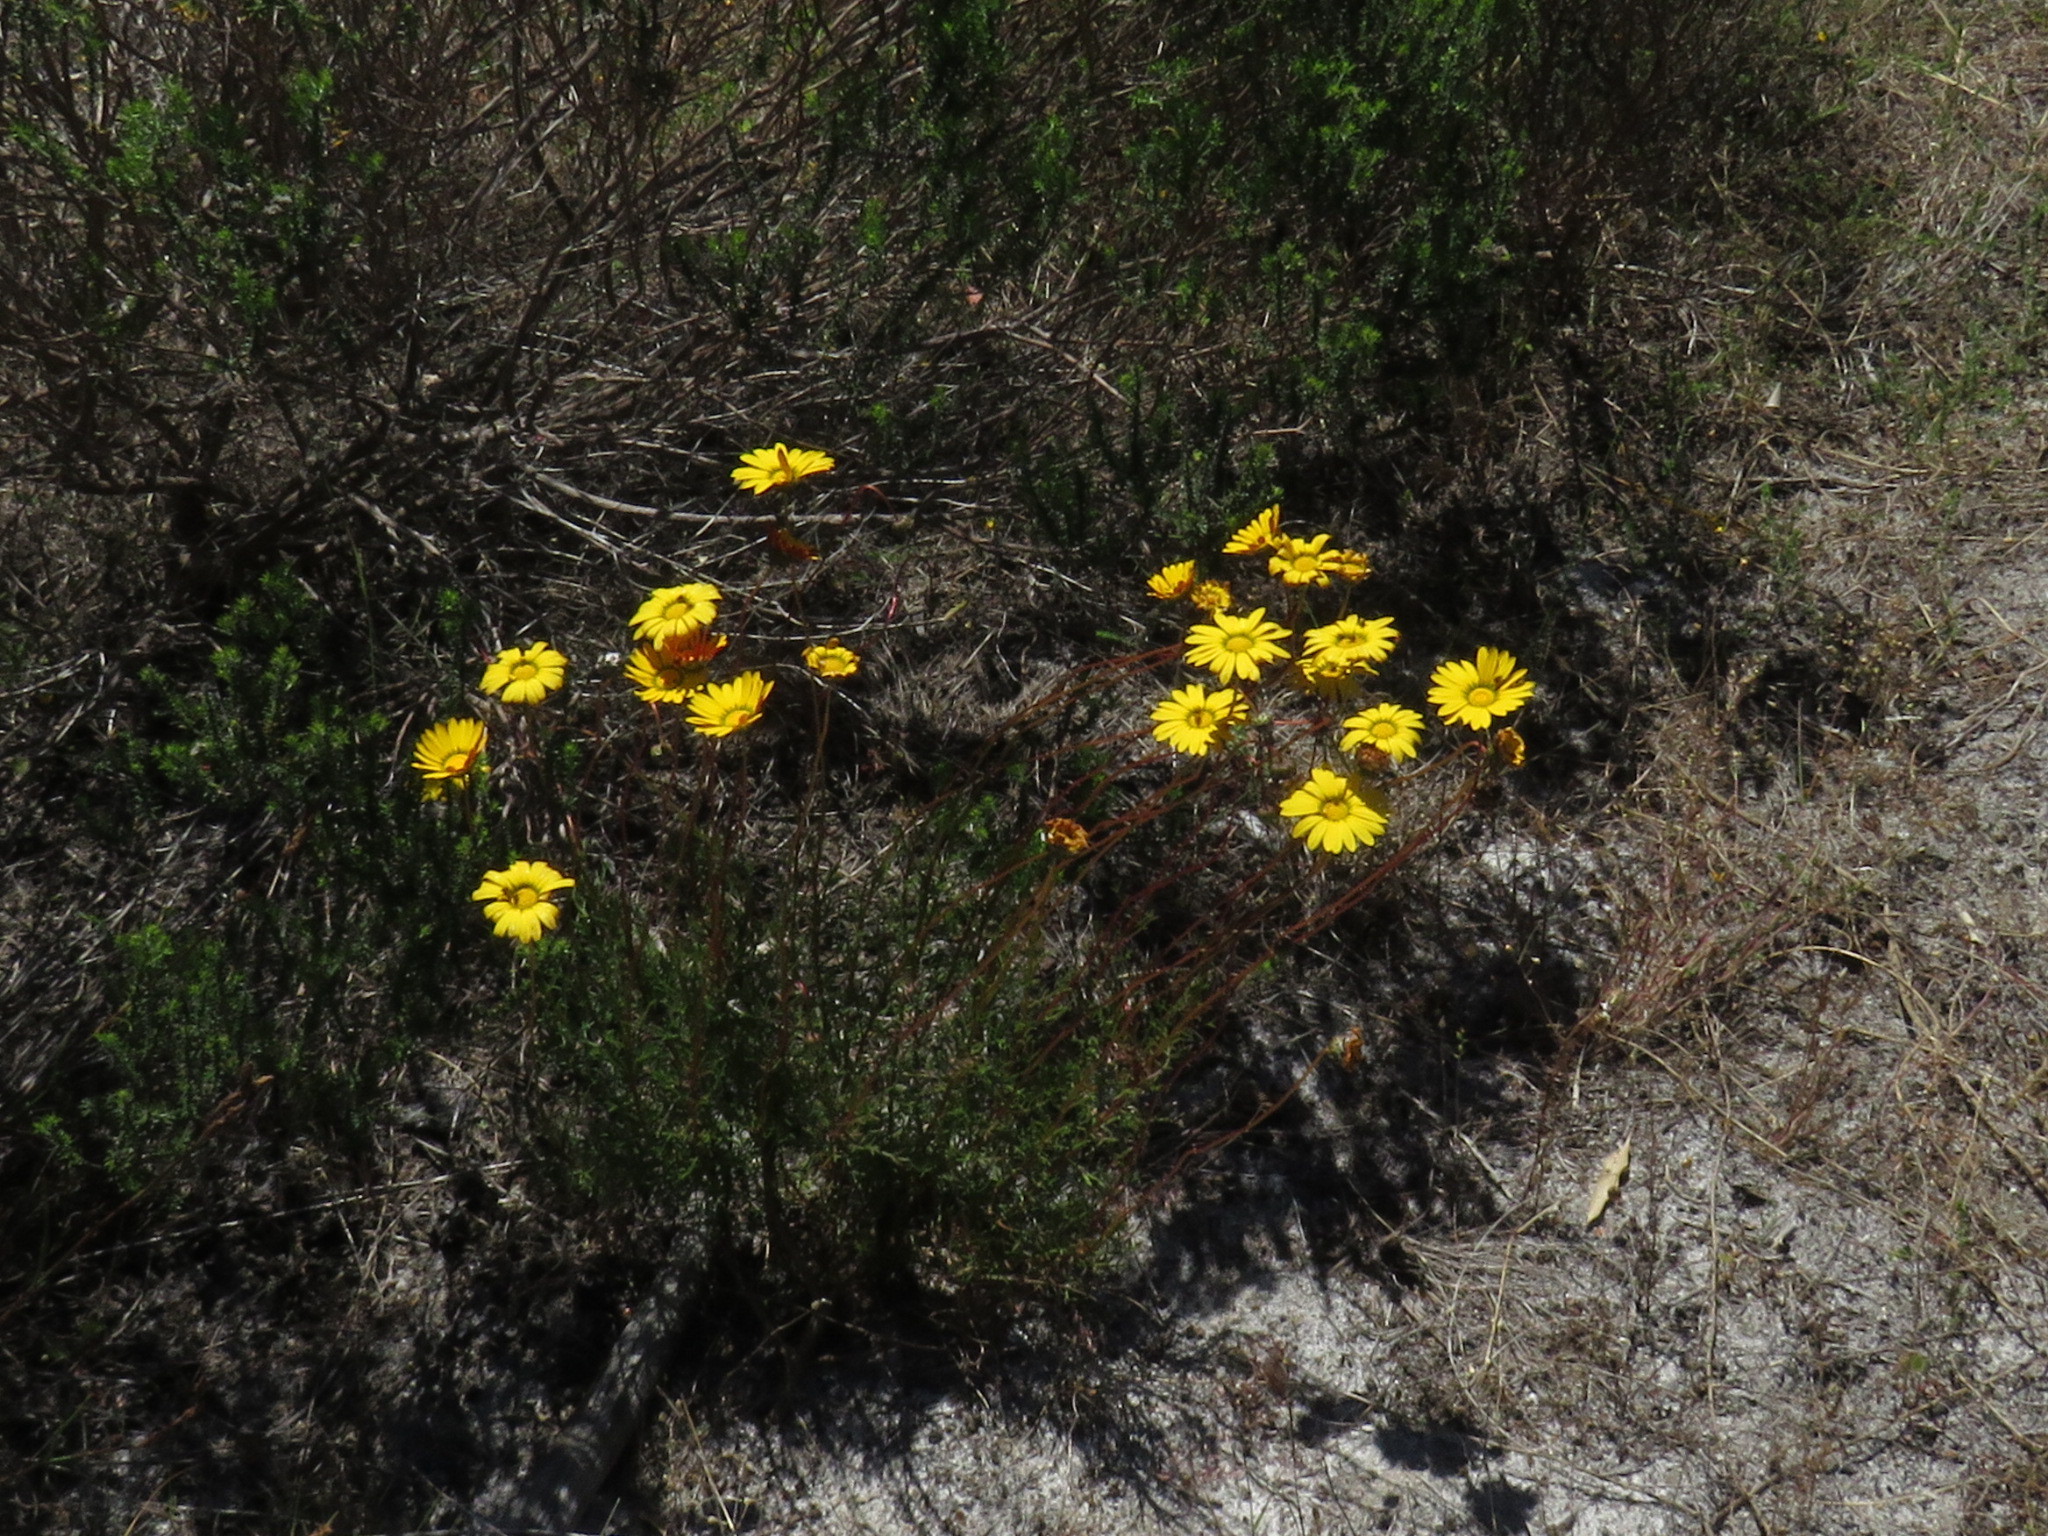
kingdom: Plantae
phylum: Tracheophyta
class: Magnoliopsida
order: Asterales
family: Asteraceae
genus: Ursinia
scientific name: Ursinia paleacea
